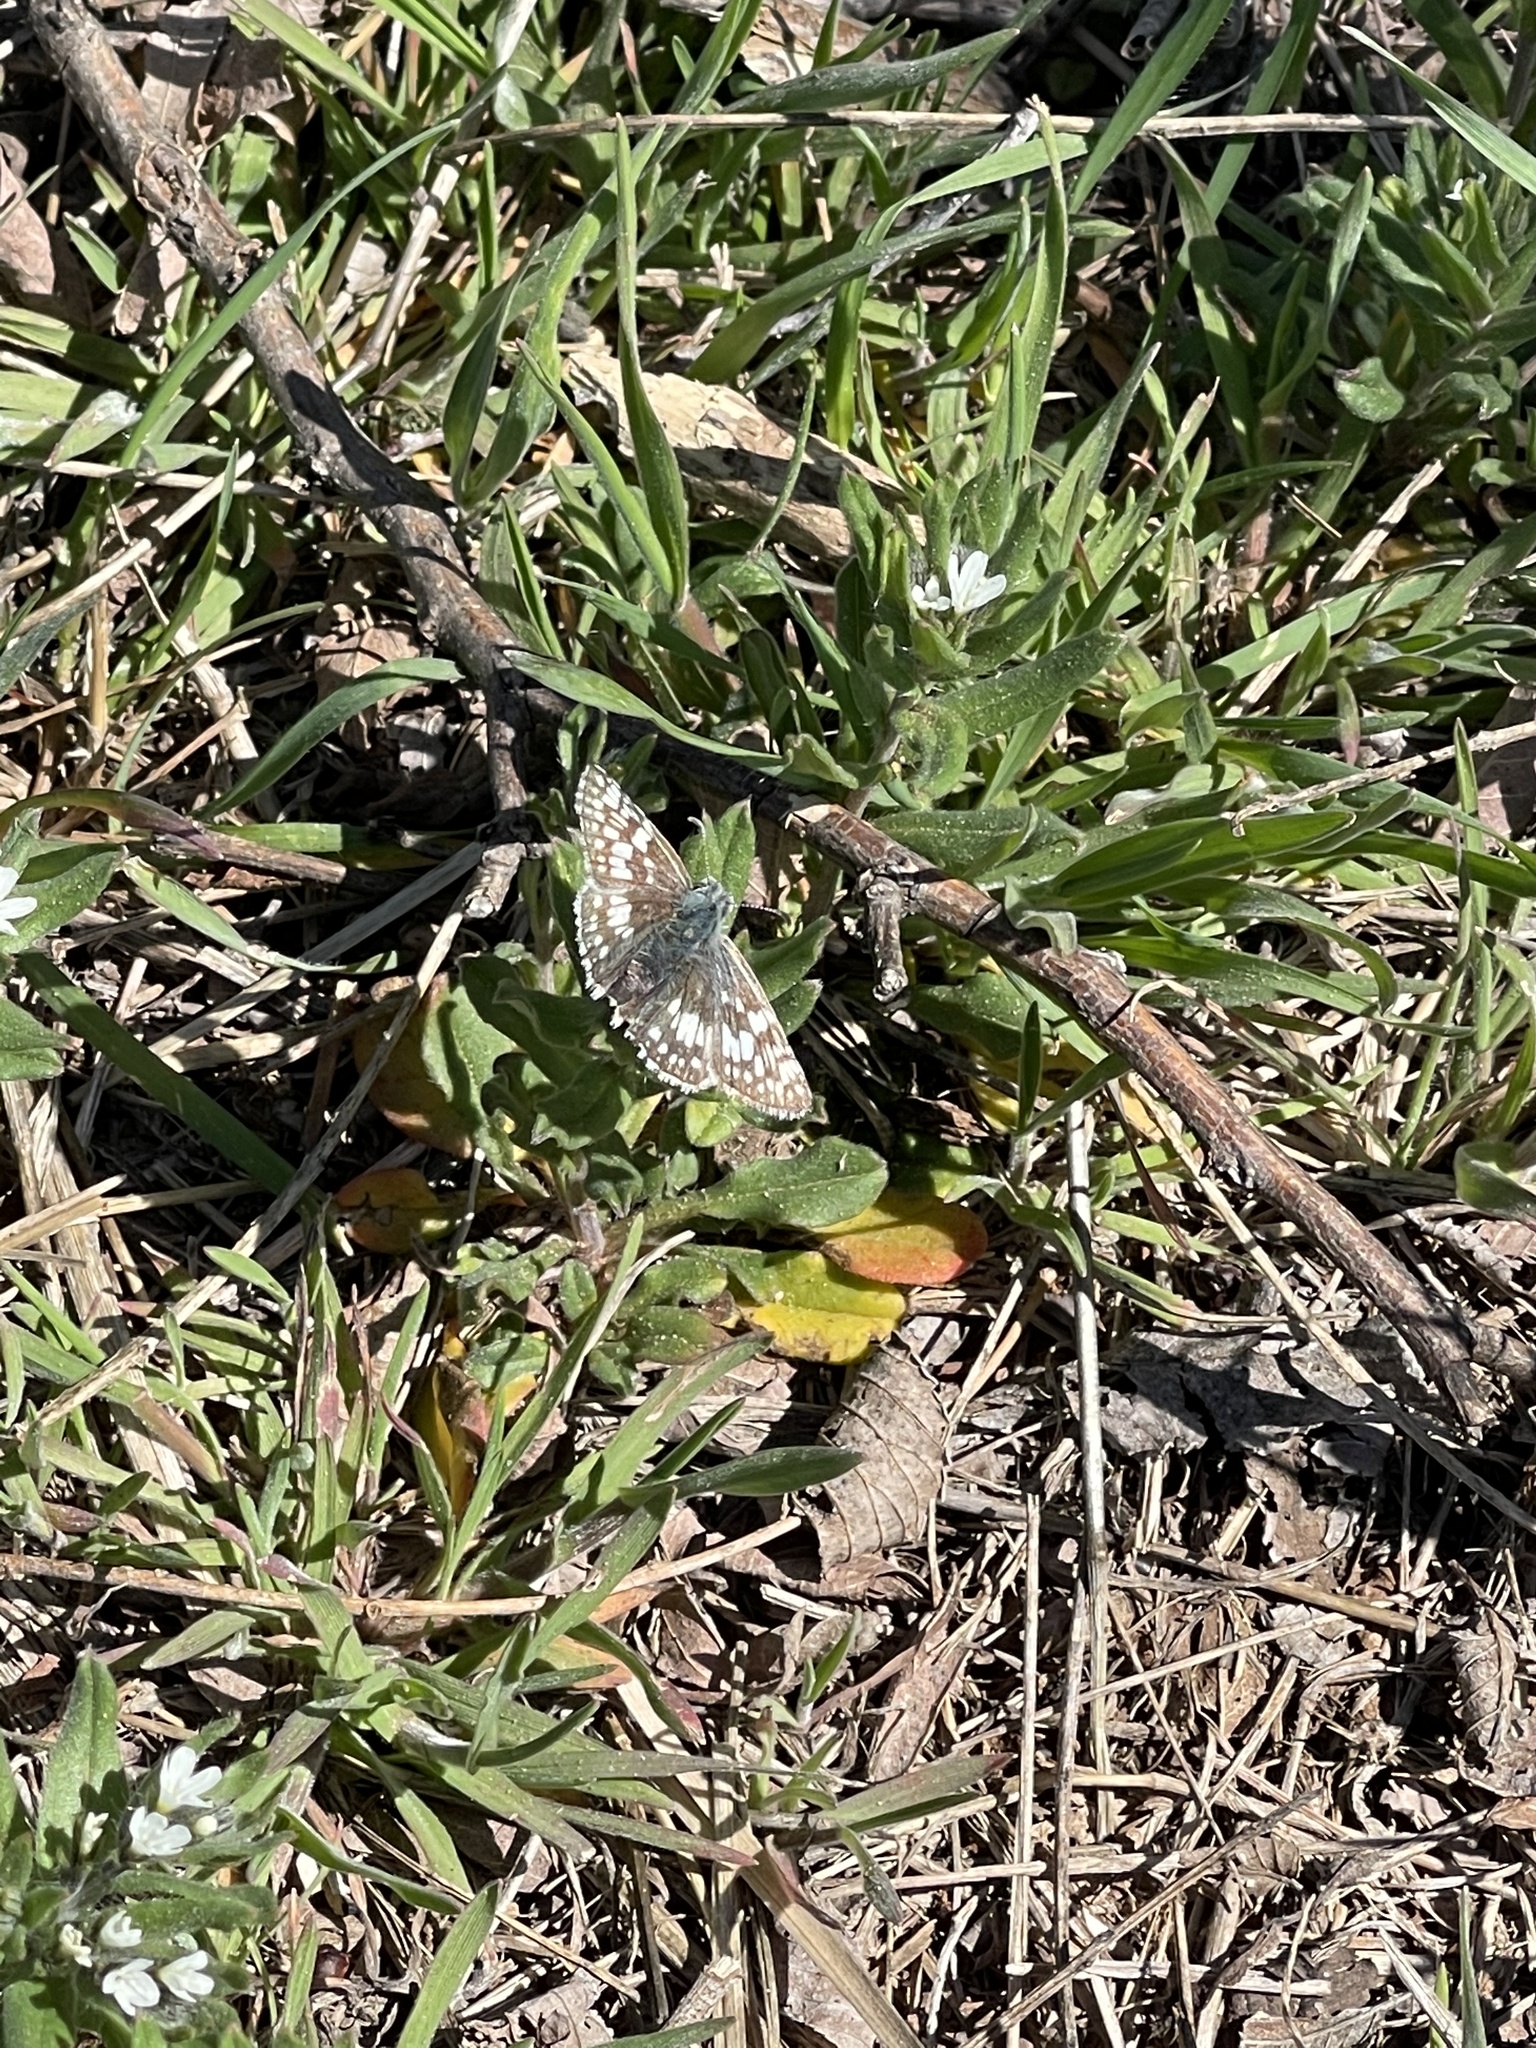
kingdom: Animalia
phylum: Arthropoda
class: Insecta
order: Lepidoptera
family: Hesperiidae
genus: Burnsius
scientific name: Burnsius communis
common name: Common checkered-skipper
